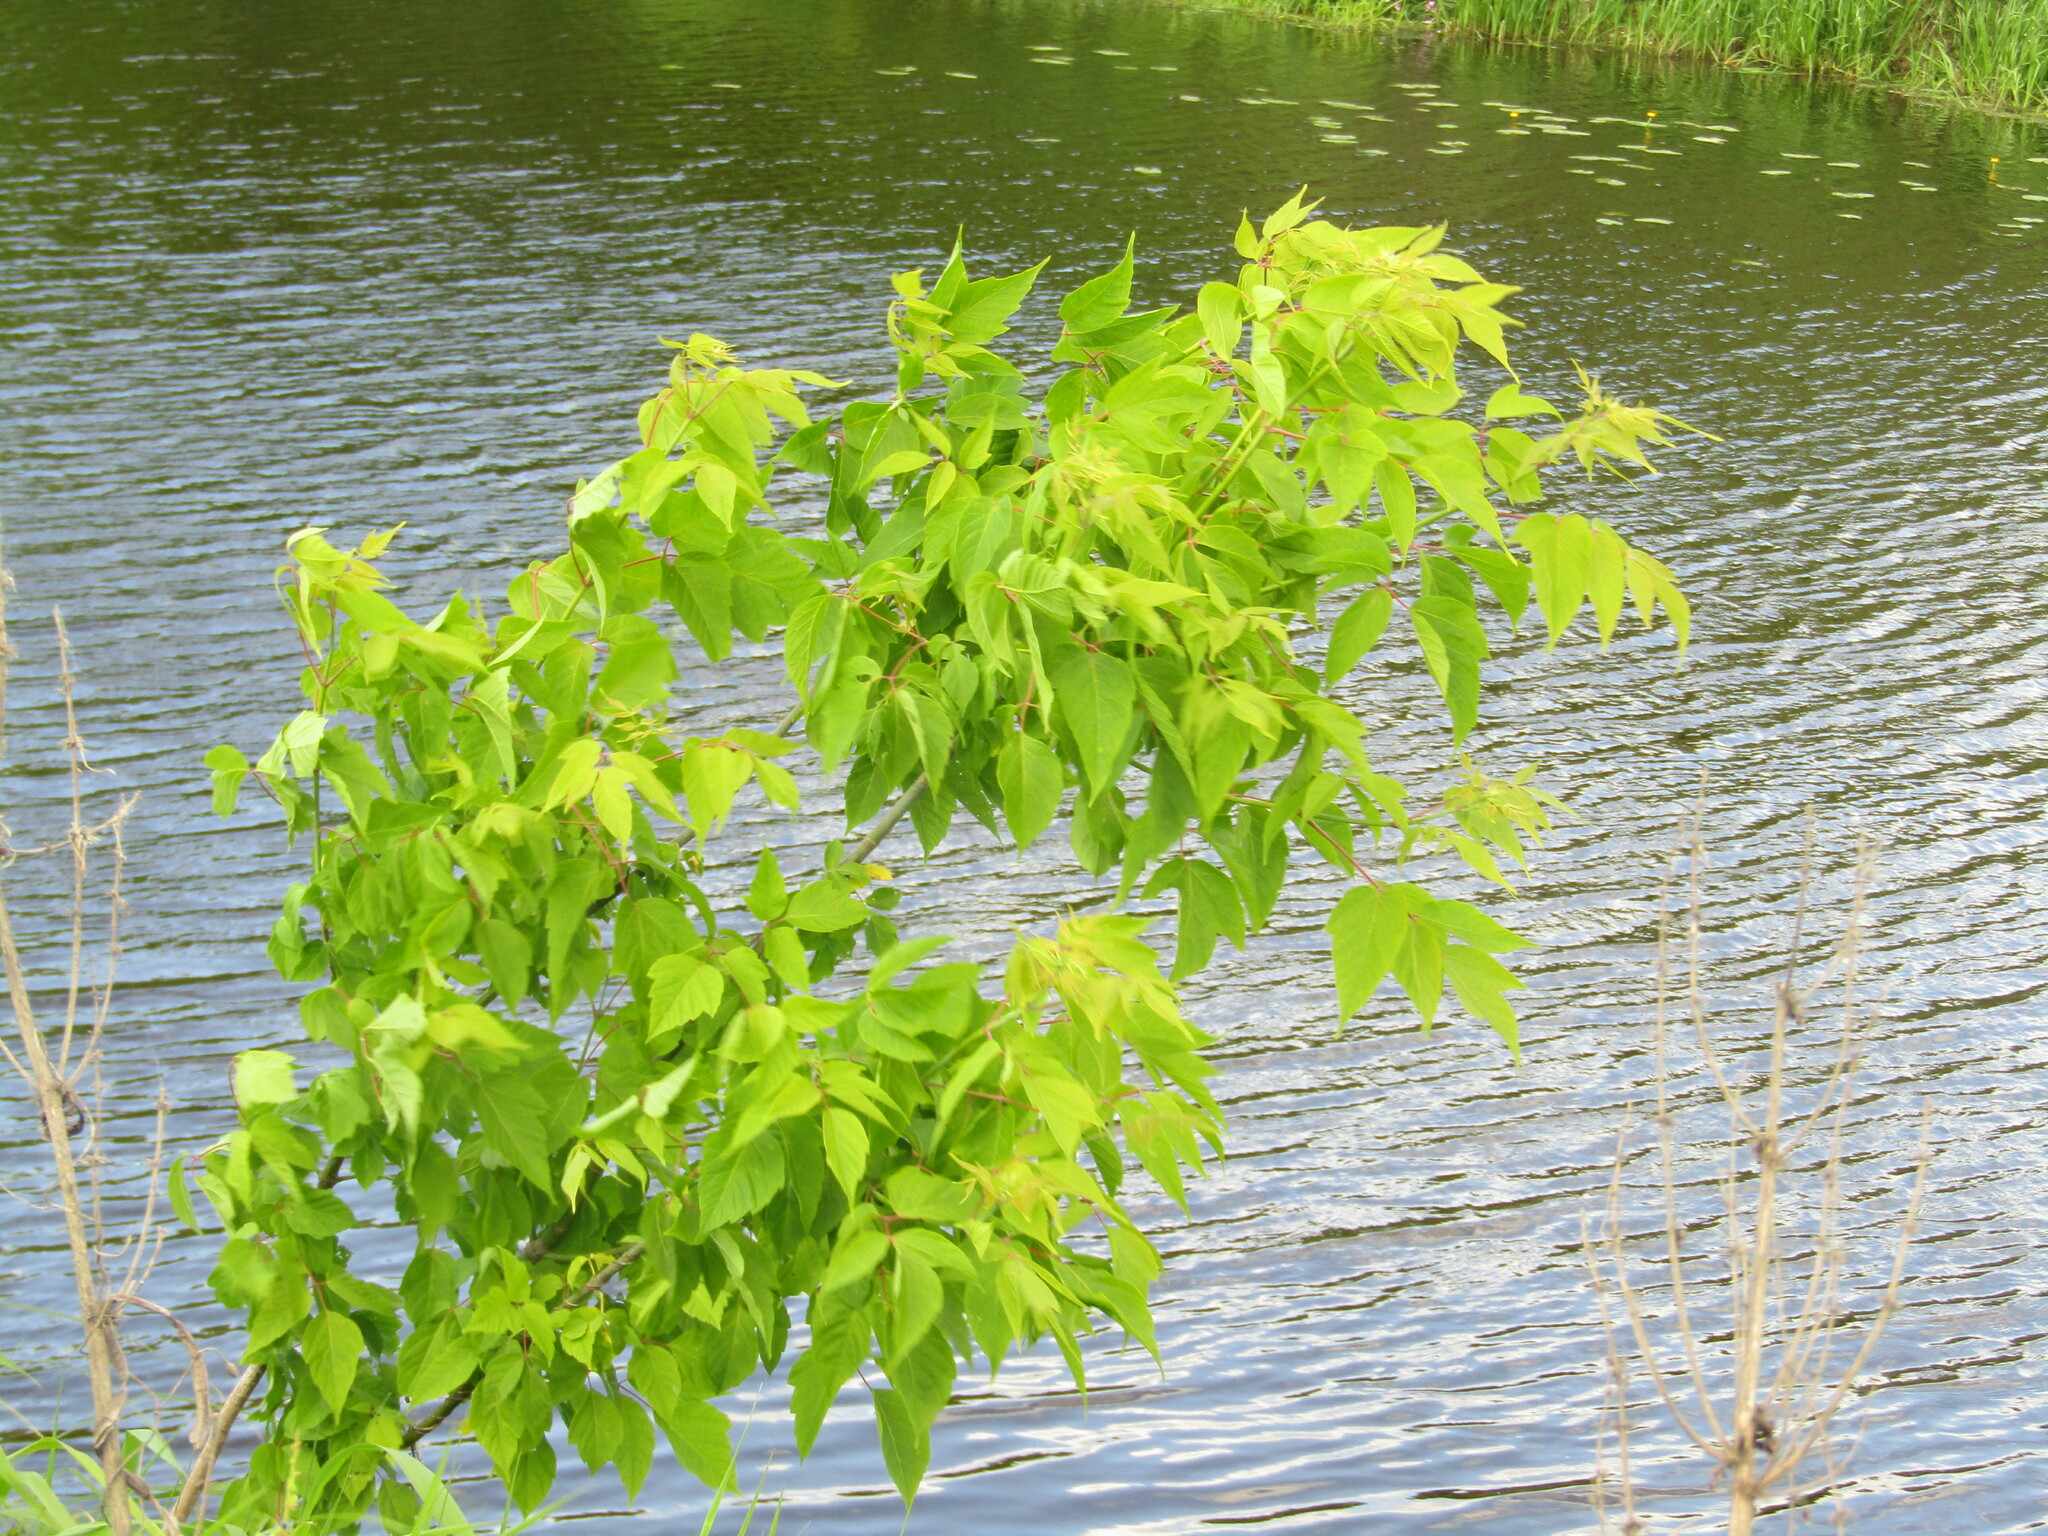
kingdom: Plantae
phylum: Tracheophyta
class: Magnoliopsida
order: Sapindales
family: Sapindaceae
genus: Acer
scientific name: Acer negundo
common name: Ashleaf maple
